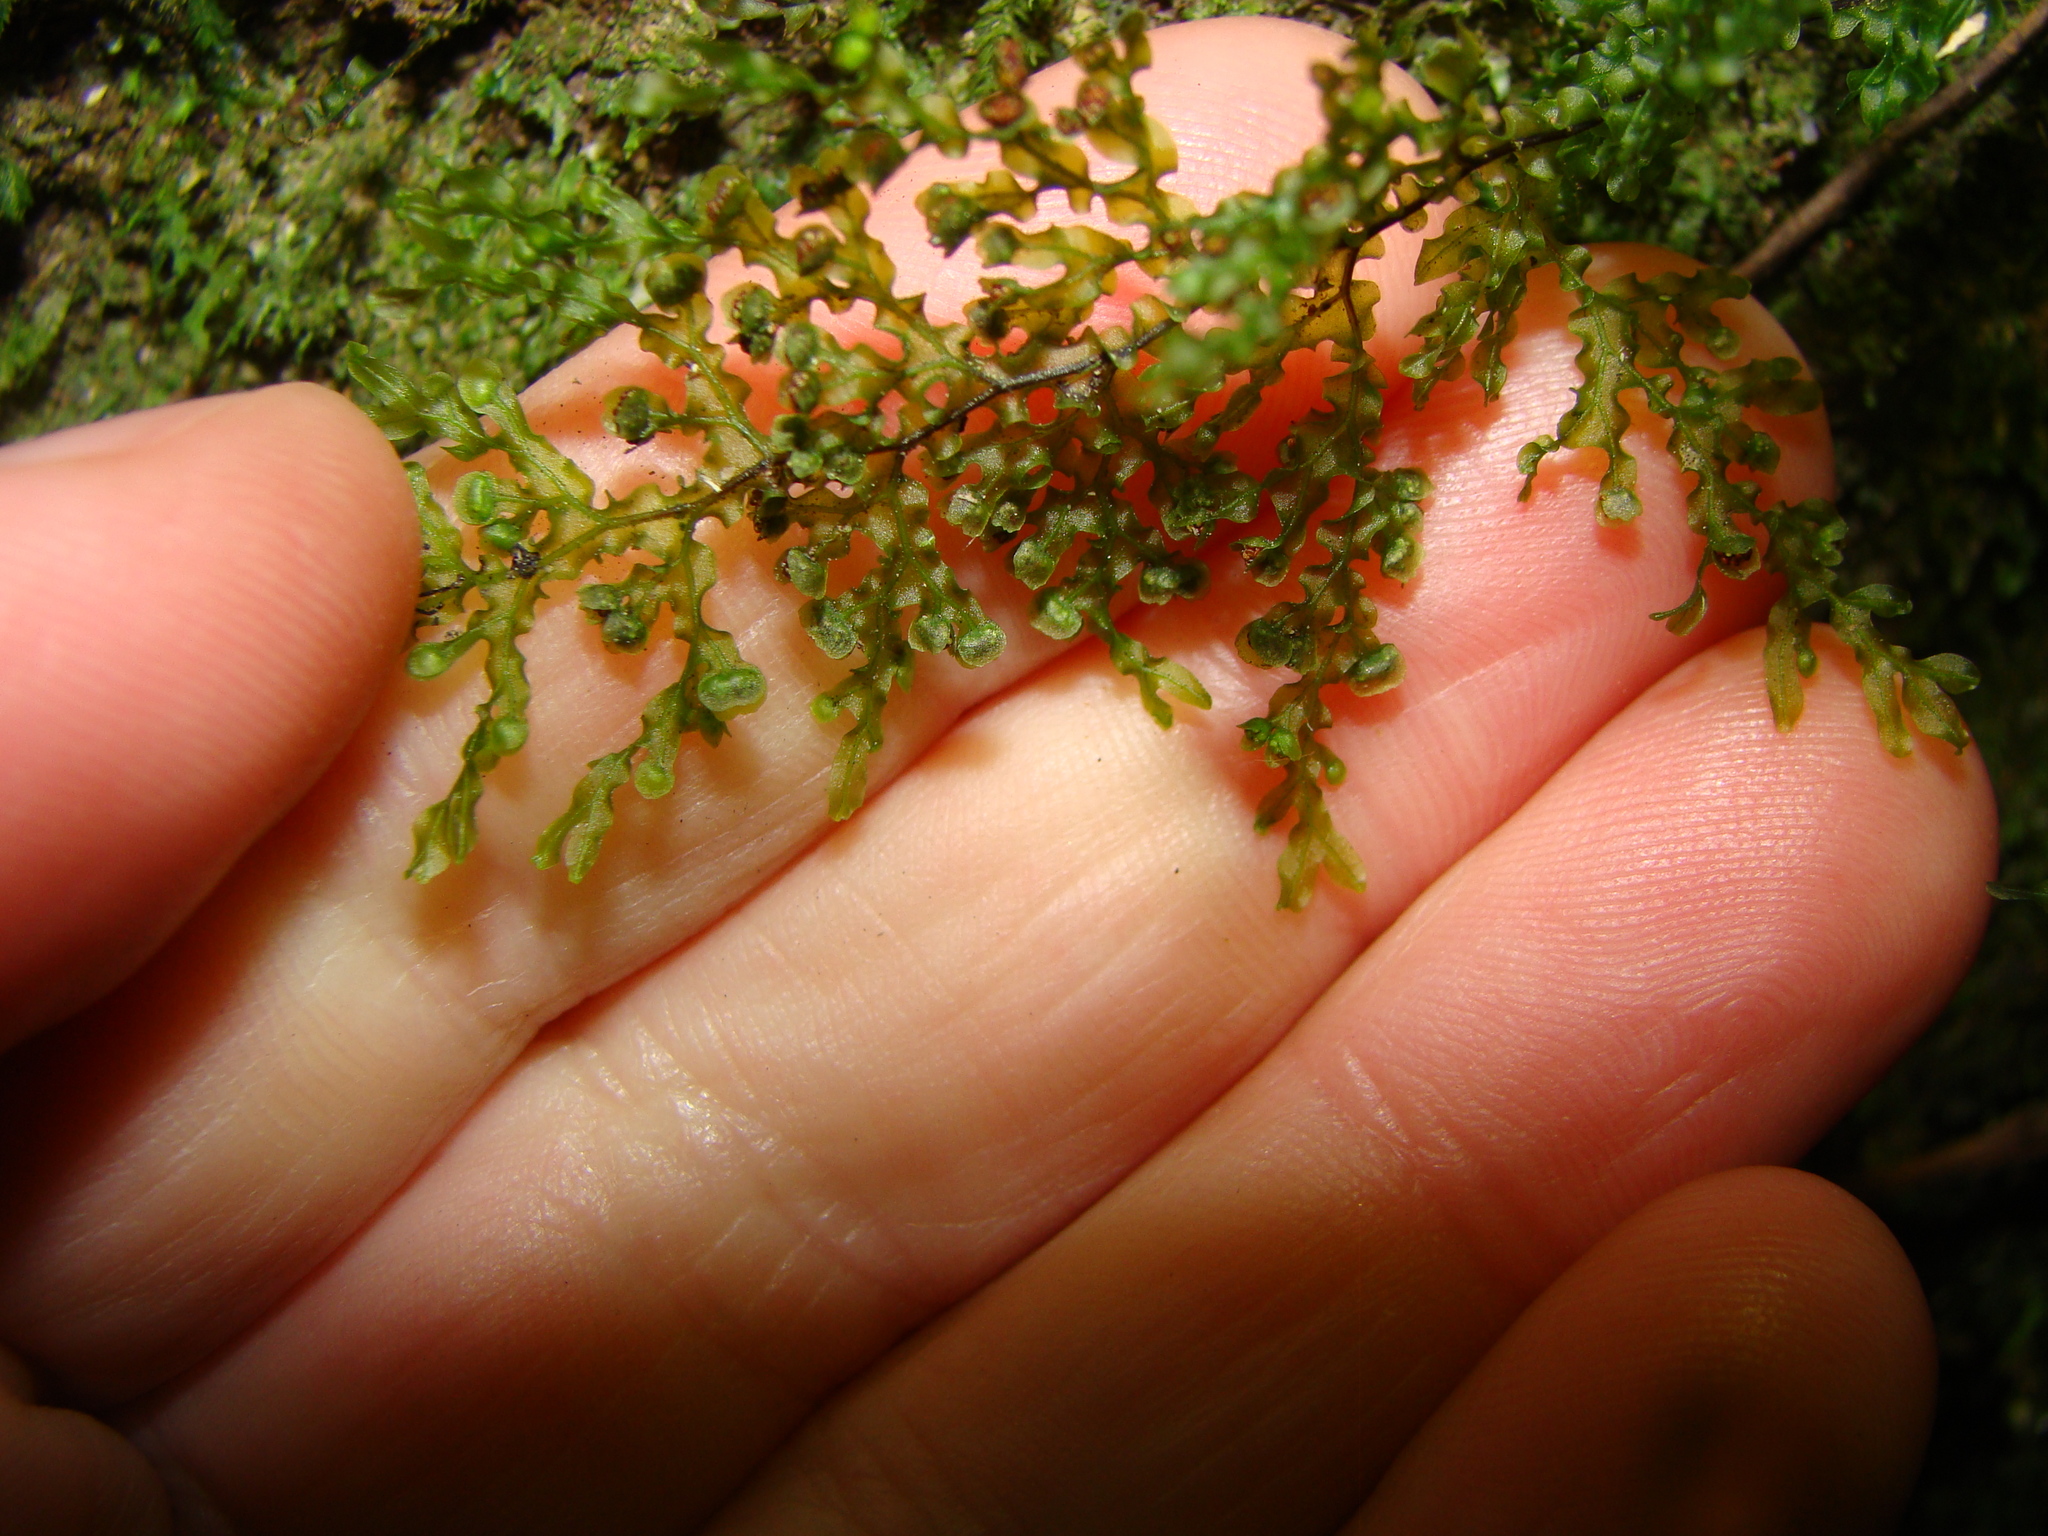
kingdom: Plantae
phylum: Tracheophyta
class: Polypodiopsida
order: Hymenophyllales
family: Hymenophyllaceae
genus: Hymenophyllum
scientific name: Hymenophyllum flexuosum
